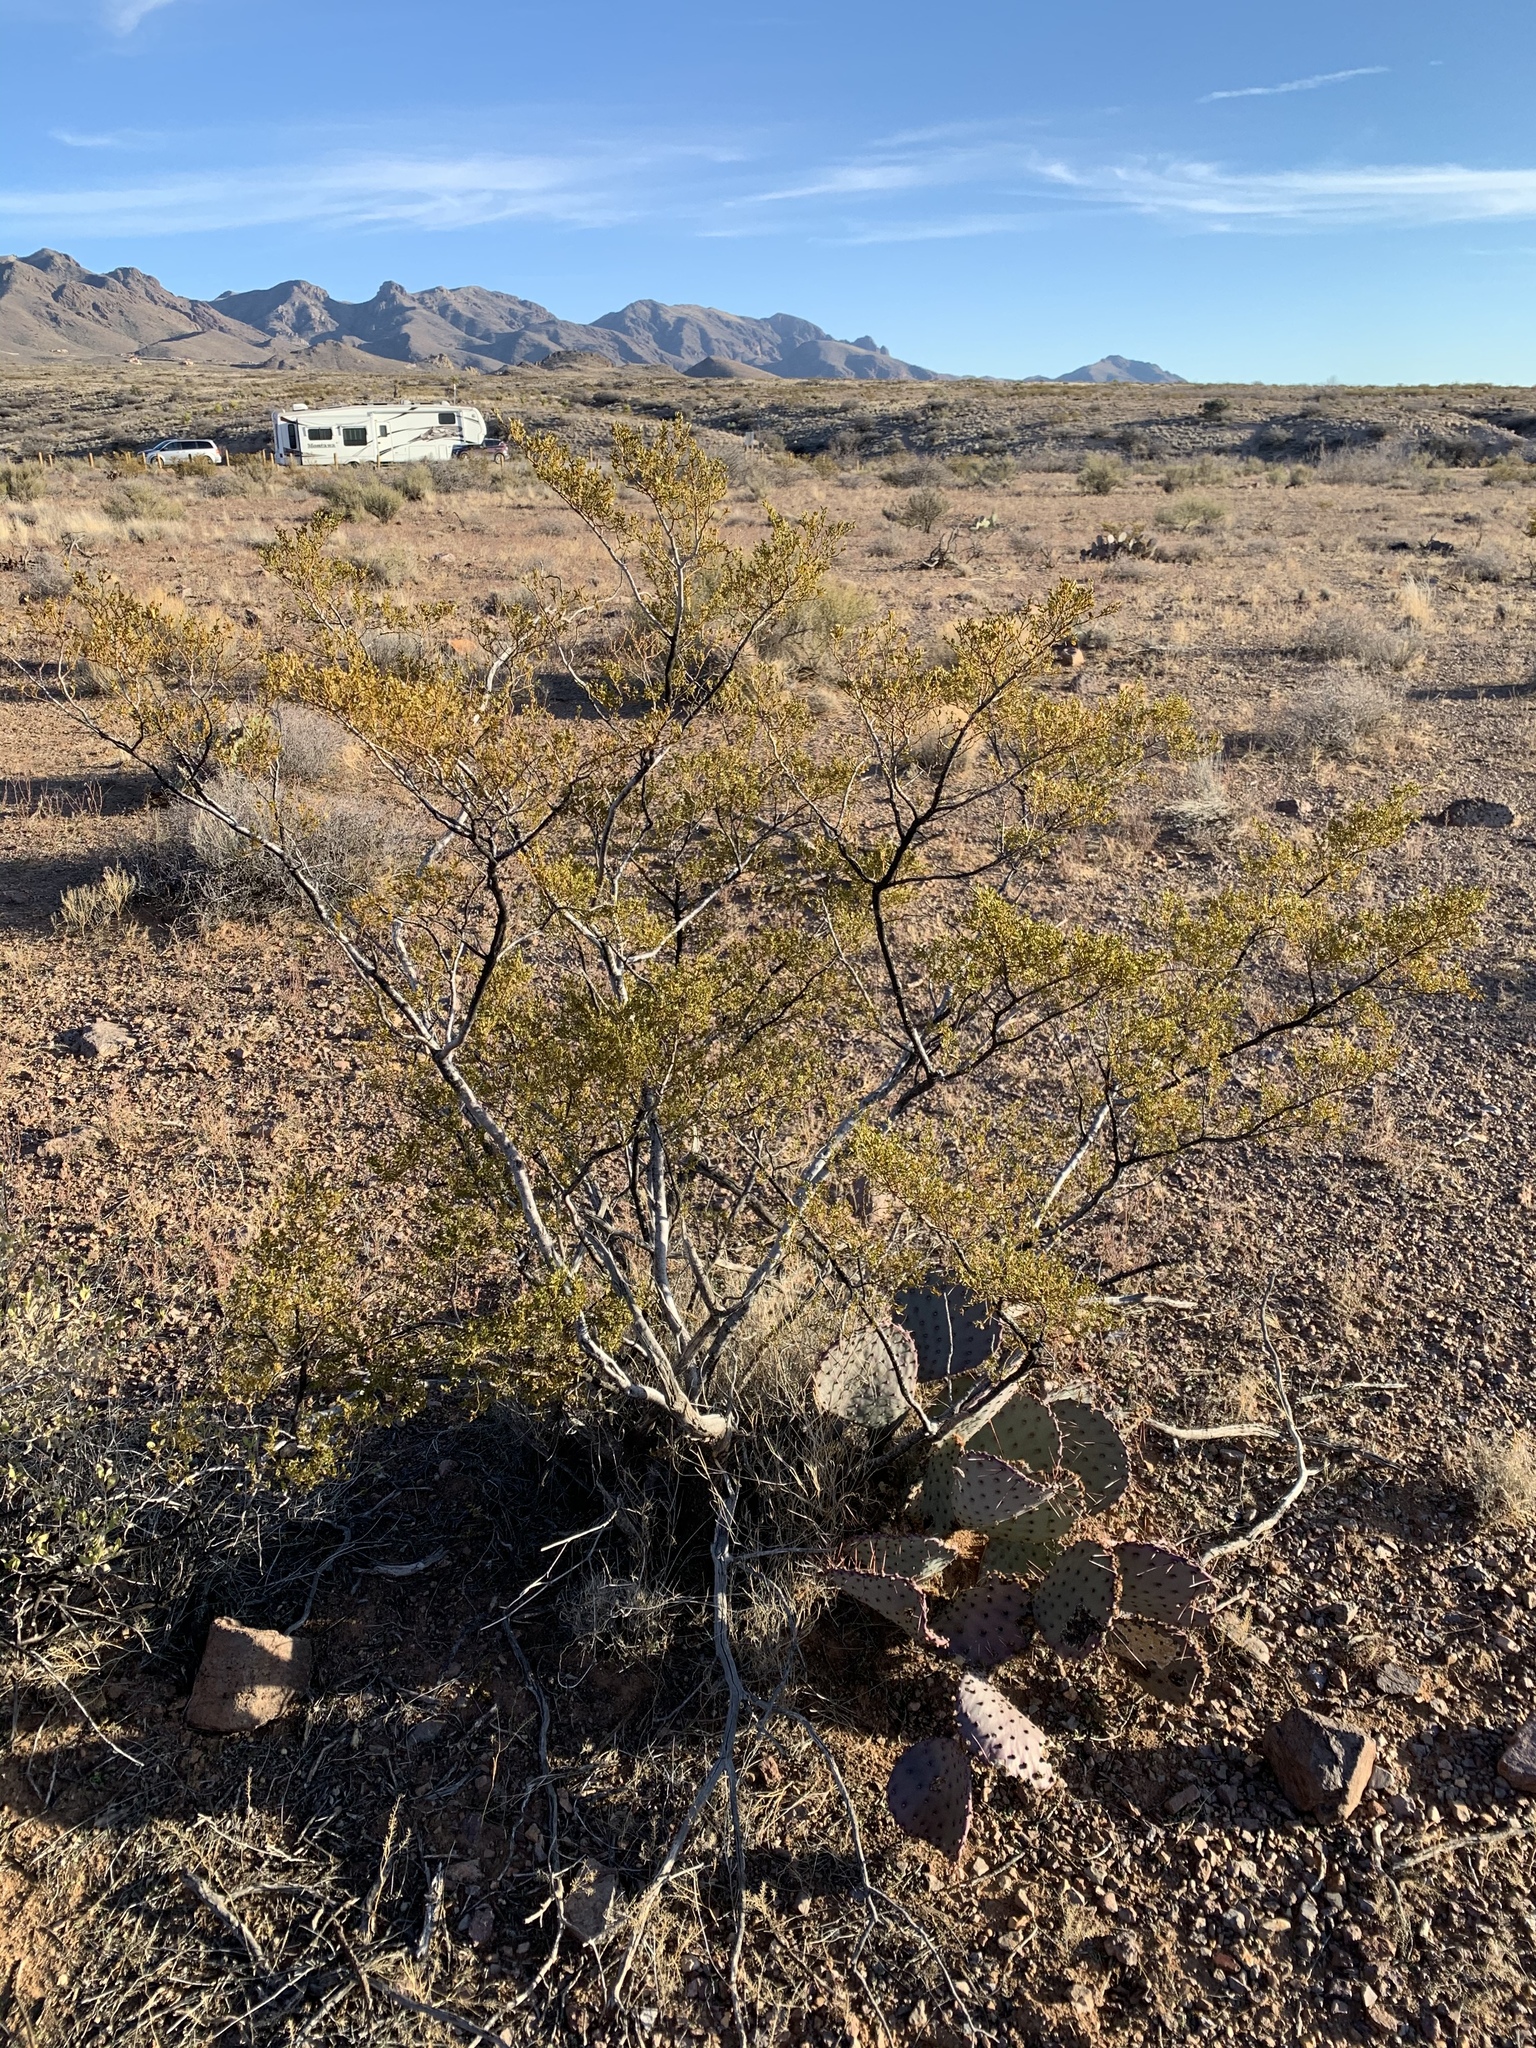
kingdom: Plantae
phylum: Tracheophyta
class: Magnoliopsida
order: Zygophyllales
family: Zygophyllaceae
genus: Larrea
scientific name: Larrea tridentata
